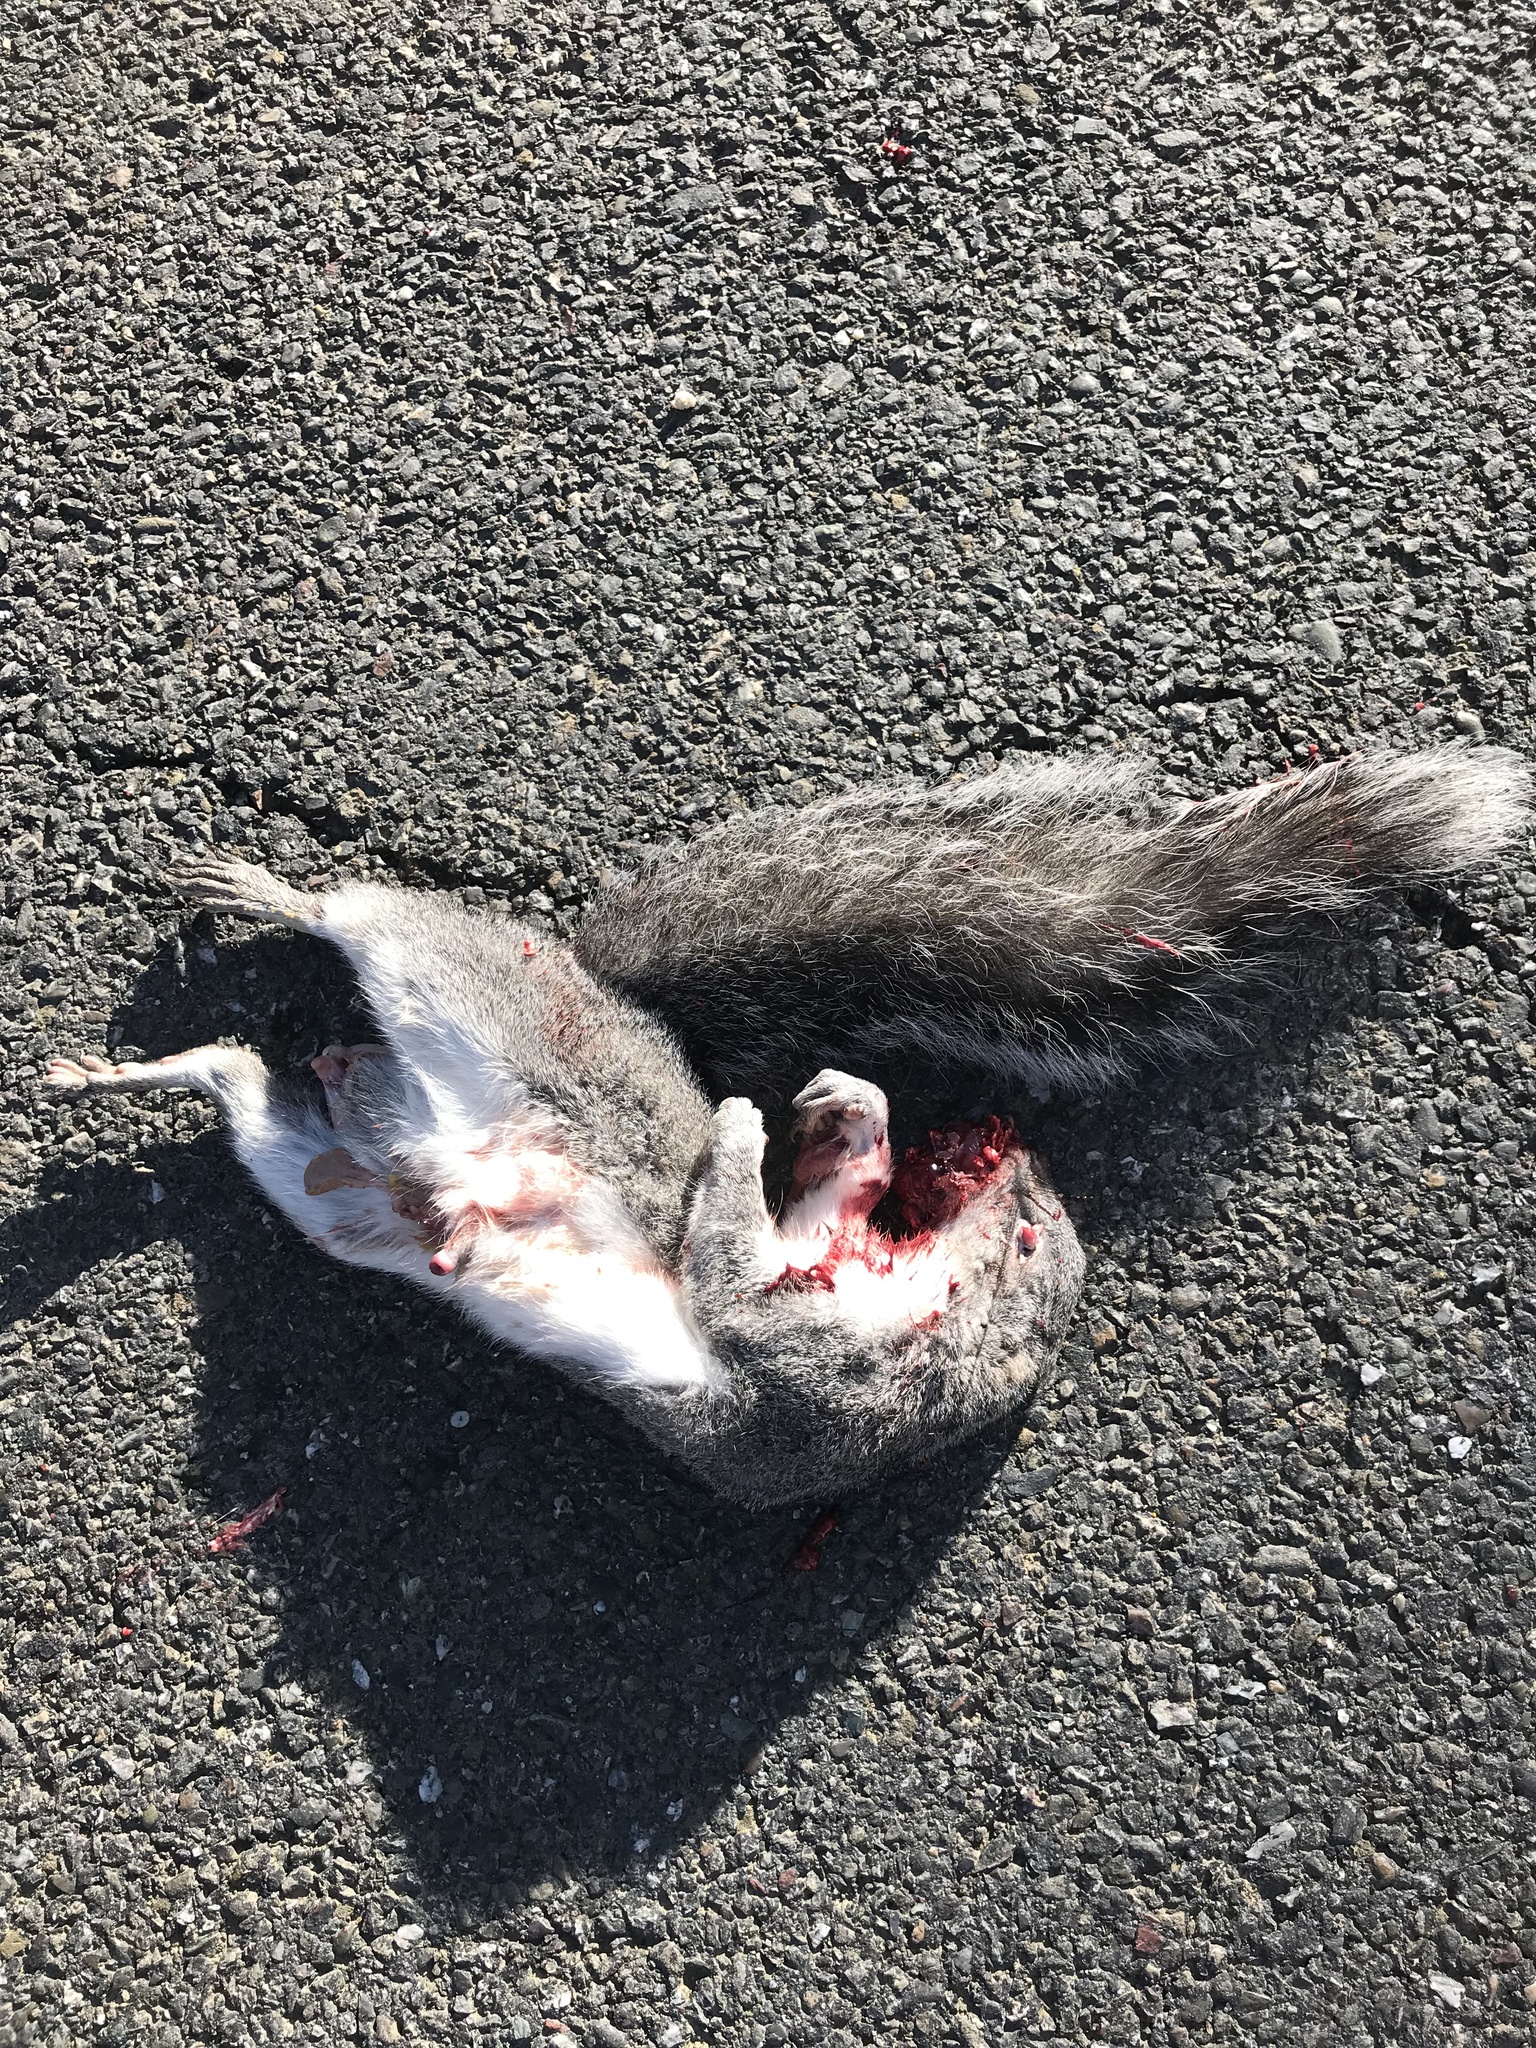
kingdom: Animalia
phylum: Chordata
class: Mammalia
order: Rodentia
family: Sciuridae
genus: Sciurus
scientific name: Sciurus griseus
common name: Western gray squirrel
